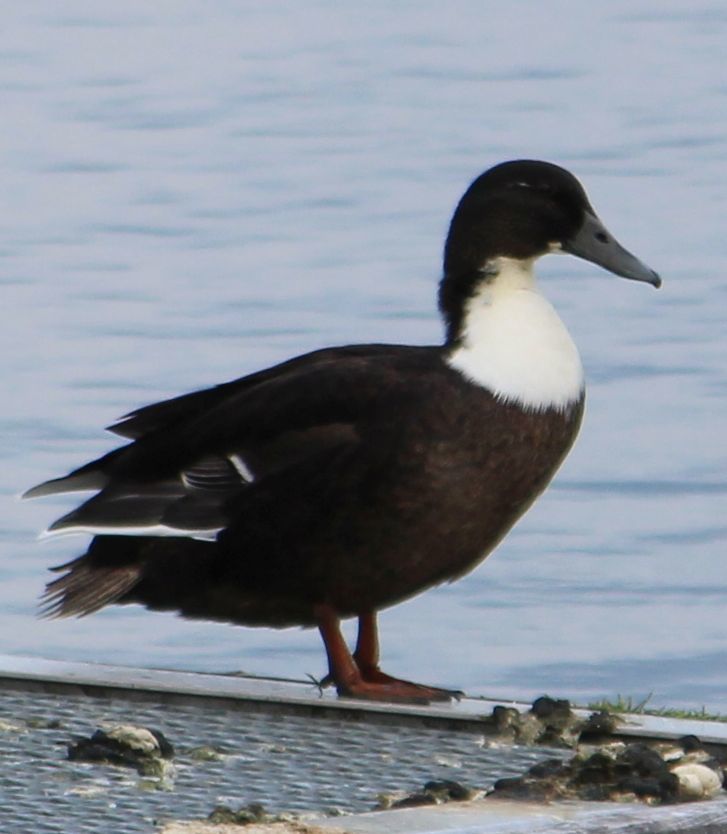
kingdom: Animalia
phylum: Chordata
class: Aves
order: Anseriformes
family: Anatidae
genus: Anas
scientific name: Anas platyrhynchos
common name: Mallard
